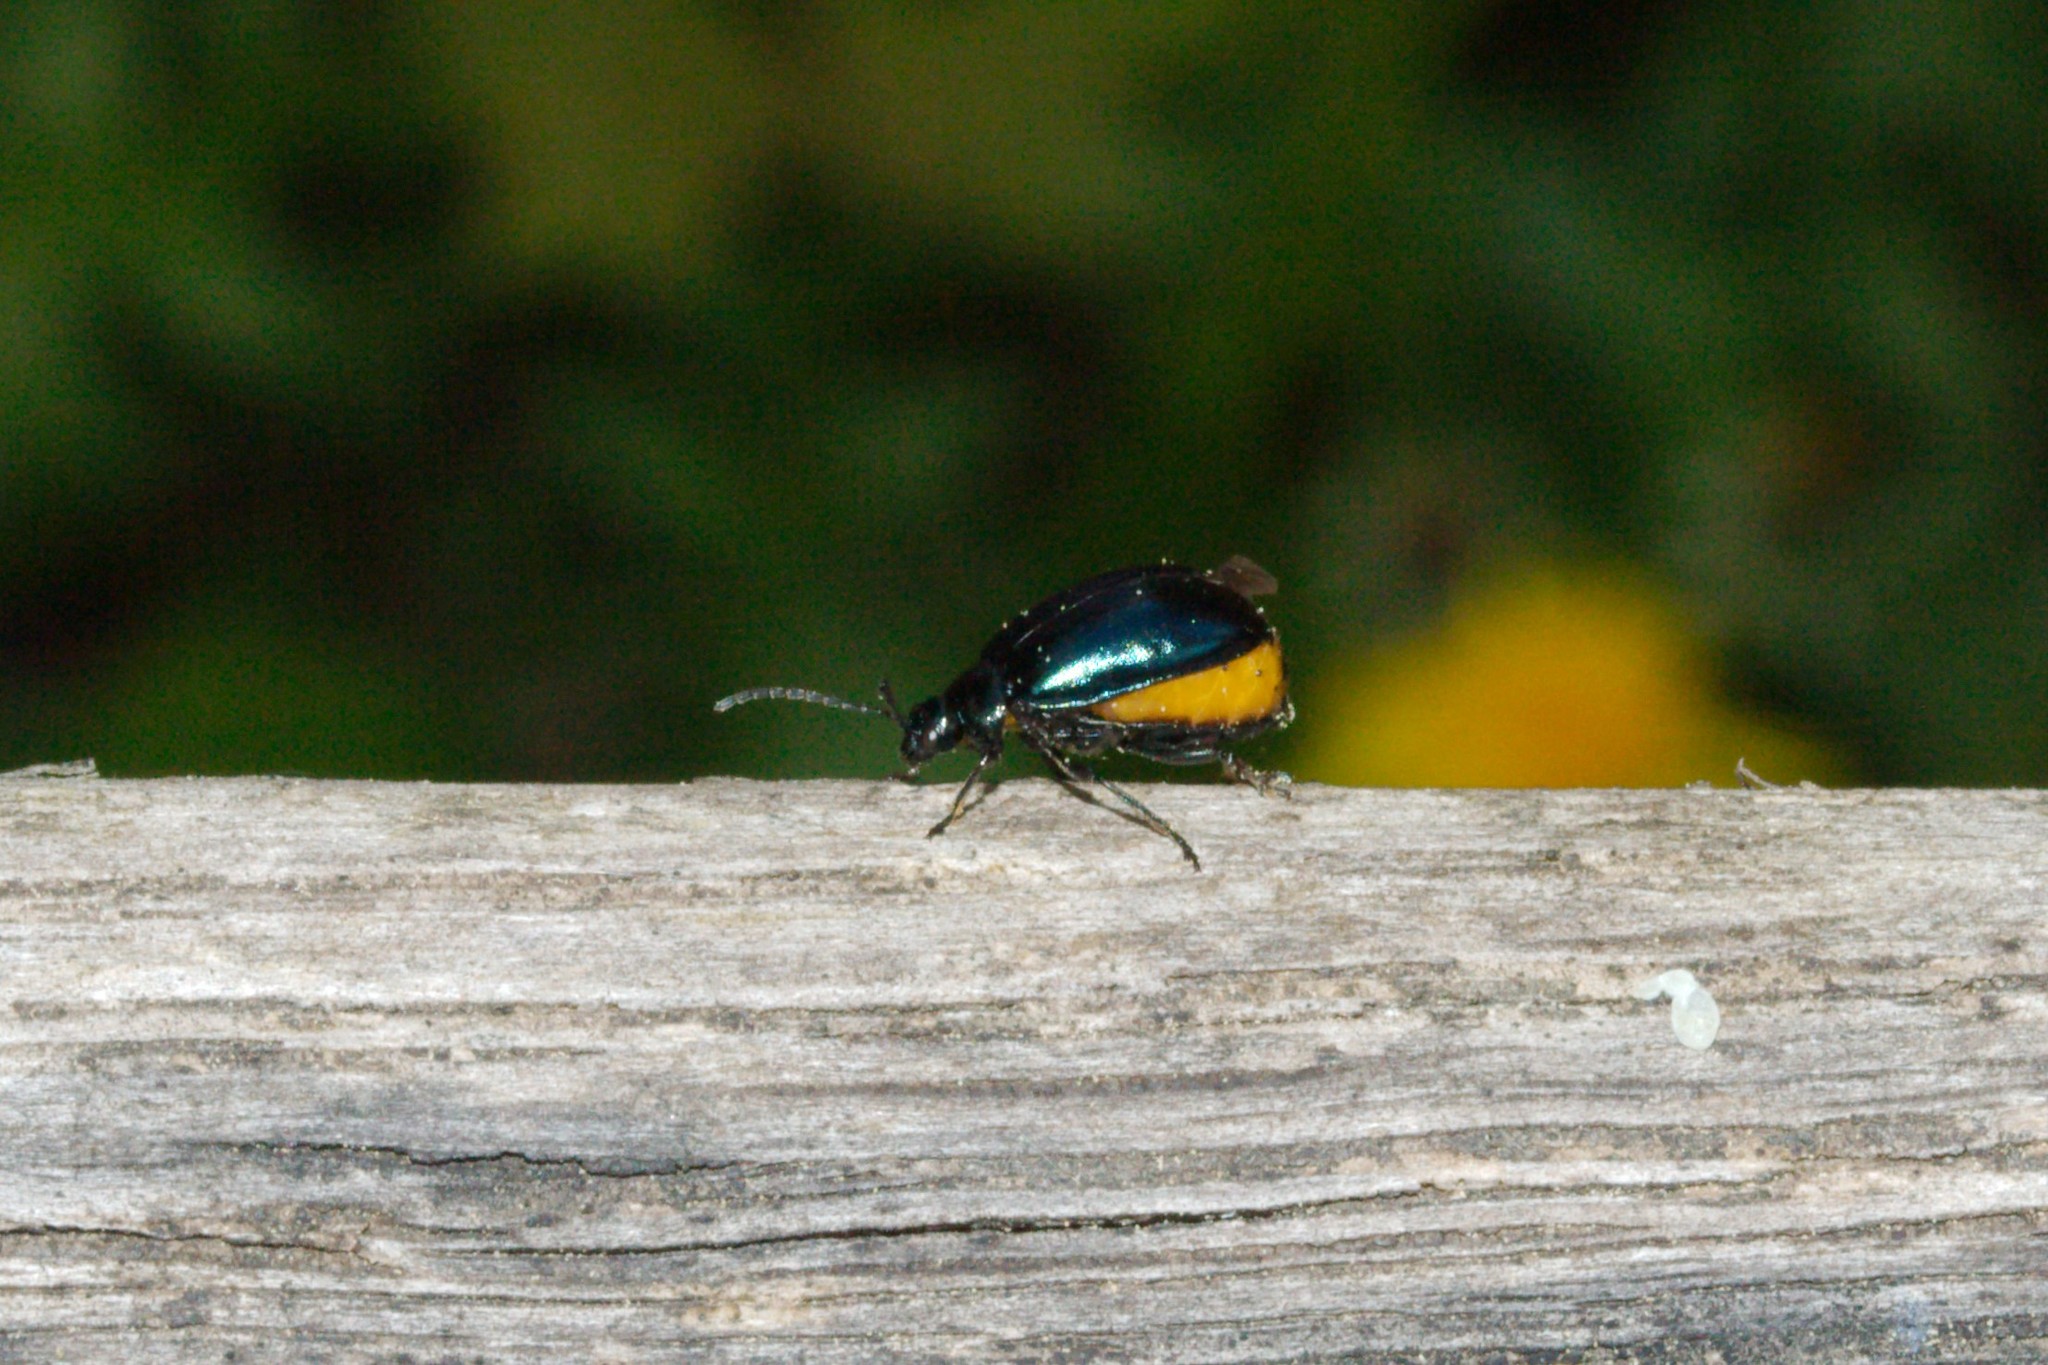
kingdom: Animalia
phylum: Arthropoda
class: Insecta
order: Coleoptera
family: Chrysomelidae
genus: Agelastica
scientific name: Agelastica alni
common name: Alder leaf beetle
